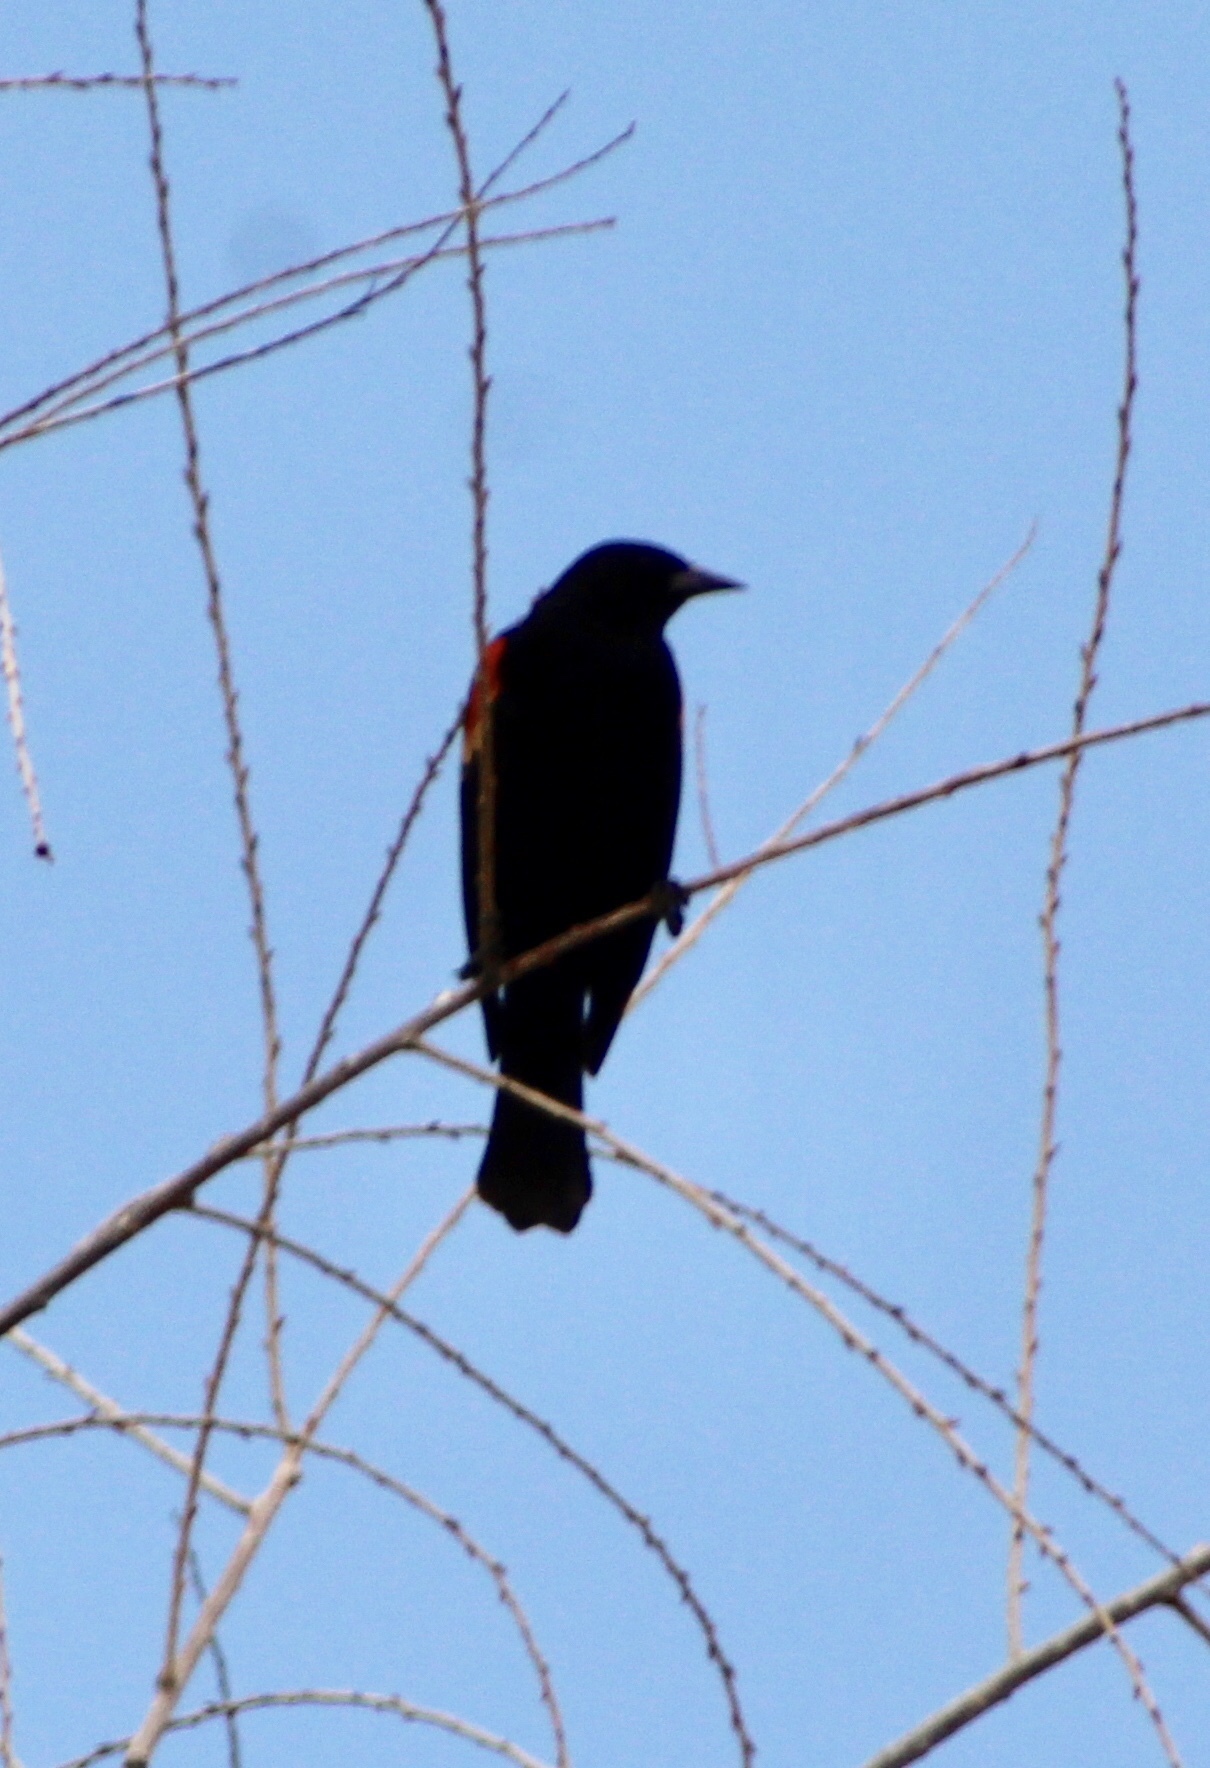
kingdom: Animalia
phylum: Chordata
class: Aves
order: Passeriformes
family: Icteridae
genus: Agelaius
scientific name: Agelaius phoeniceus
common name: Red-winged blackbird
